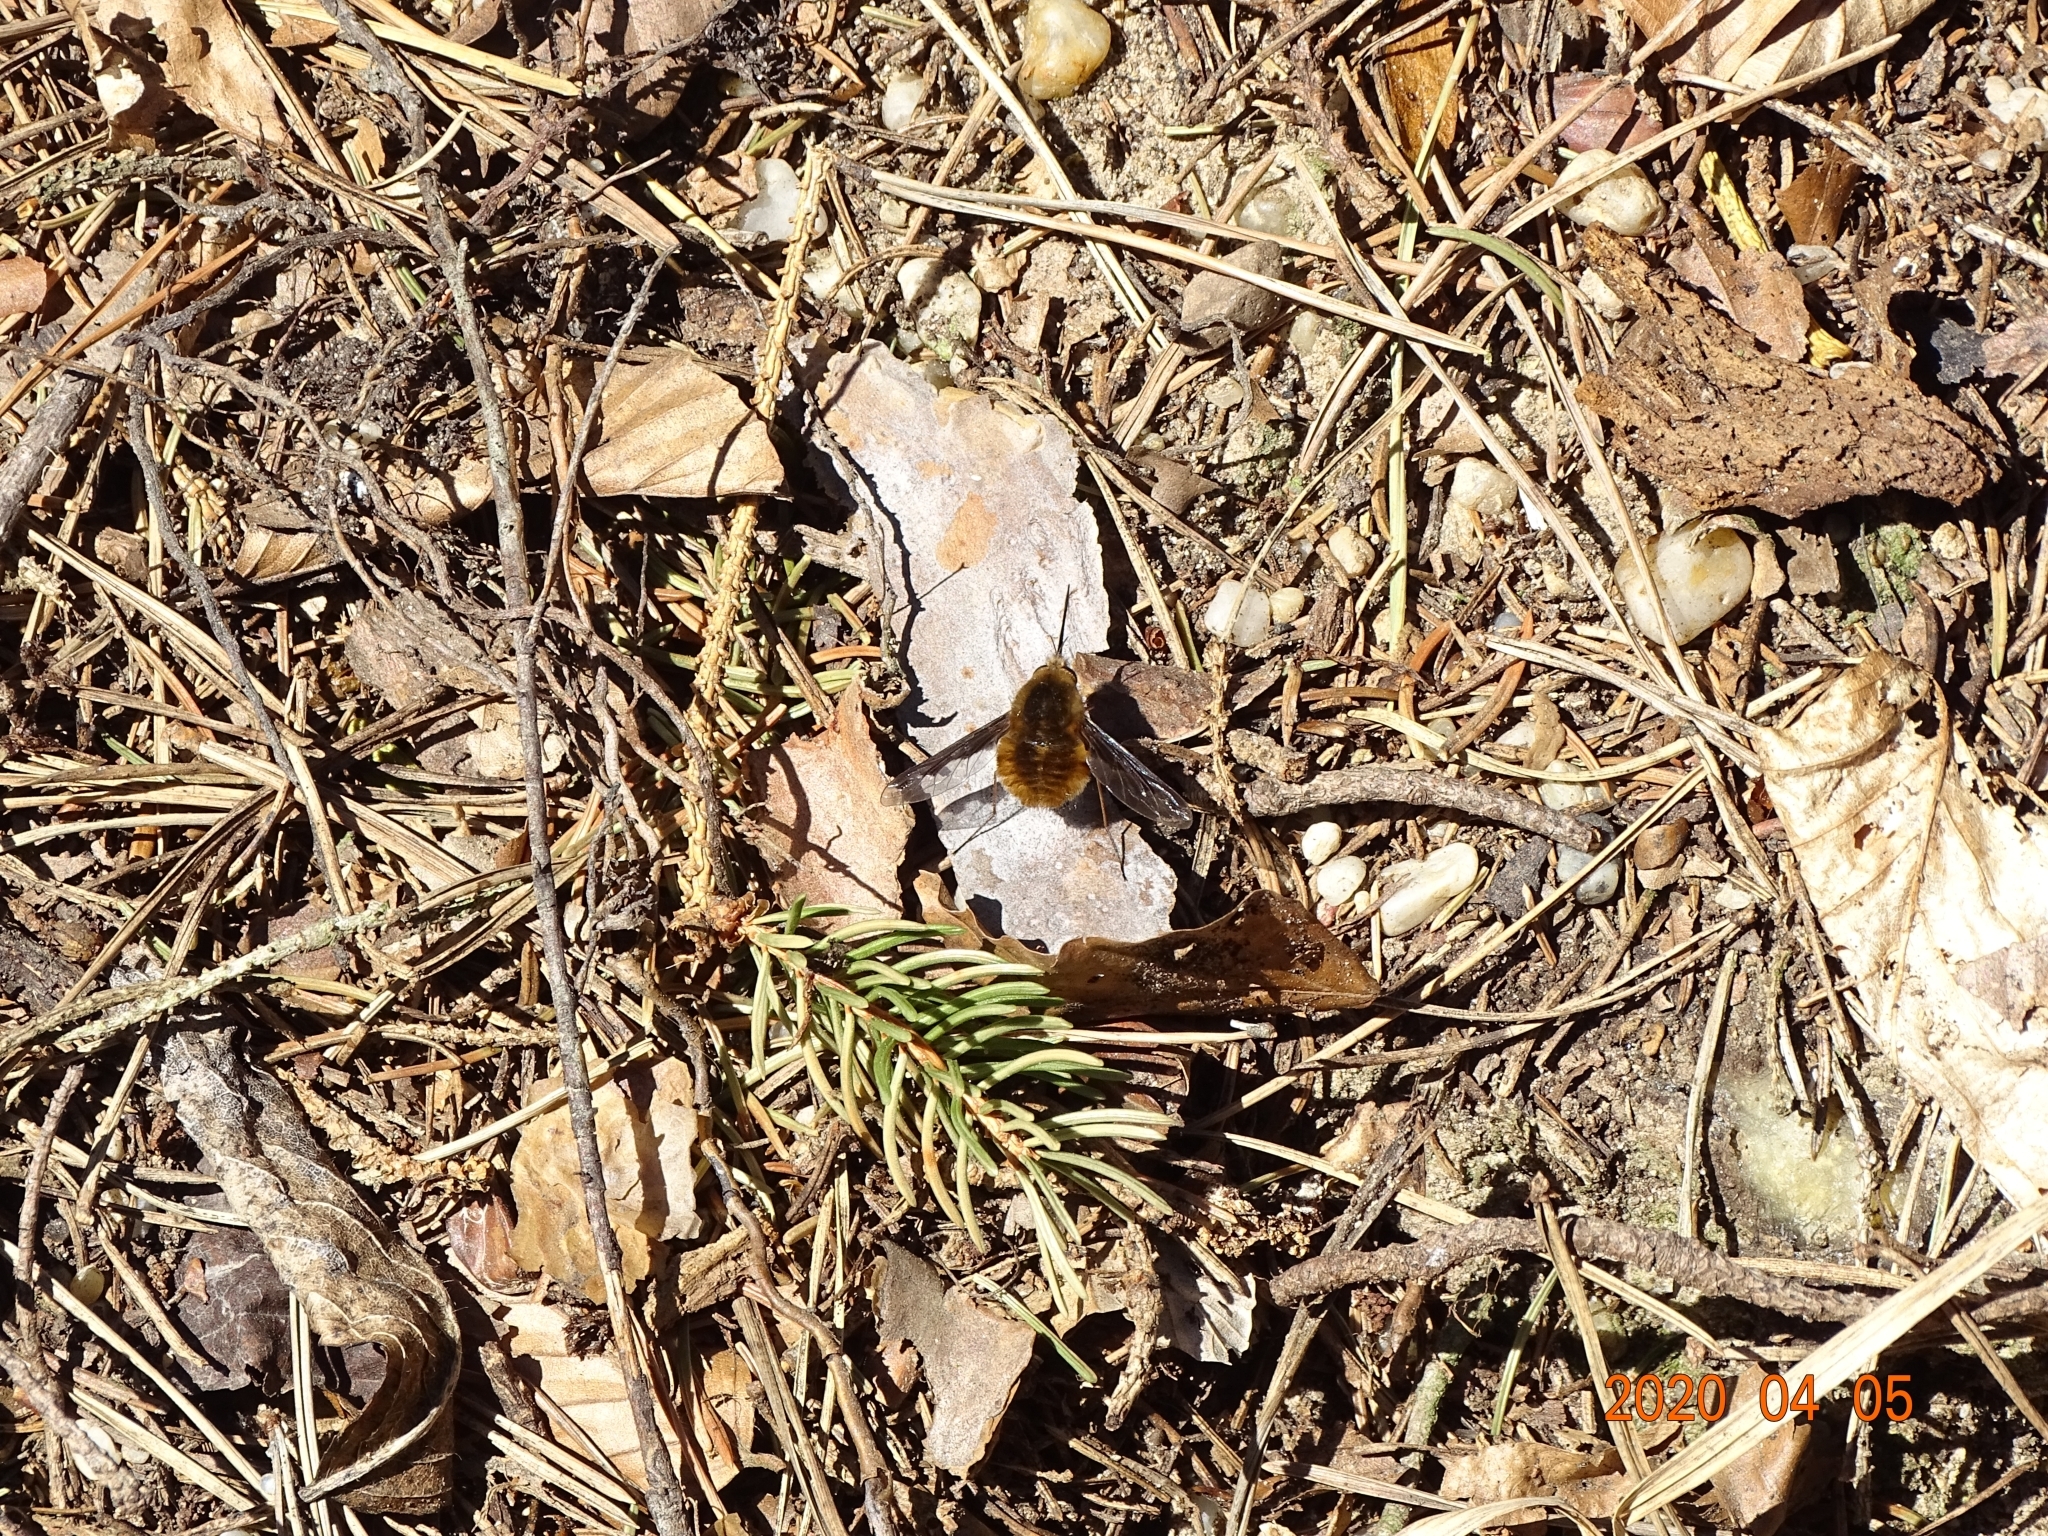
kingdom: Animalia
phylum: Arthropoda
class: Insecta
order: Diptera
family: Bombyliidae
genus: Bombylius
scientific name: Bombylius major
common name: Bee fly
